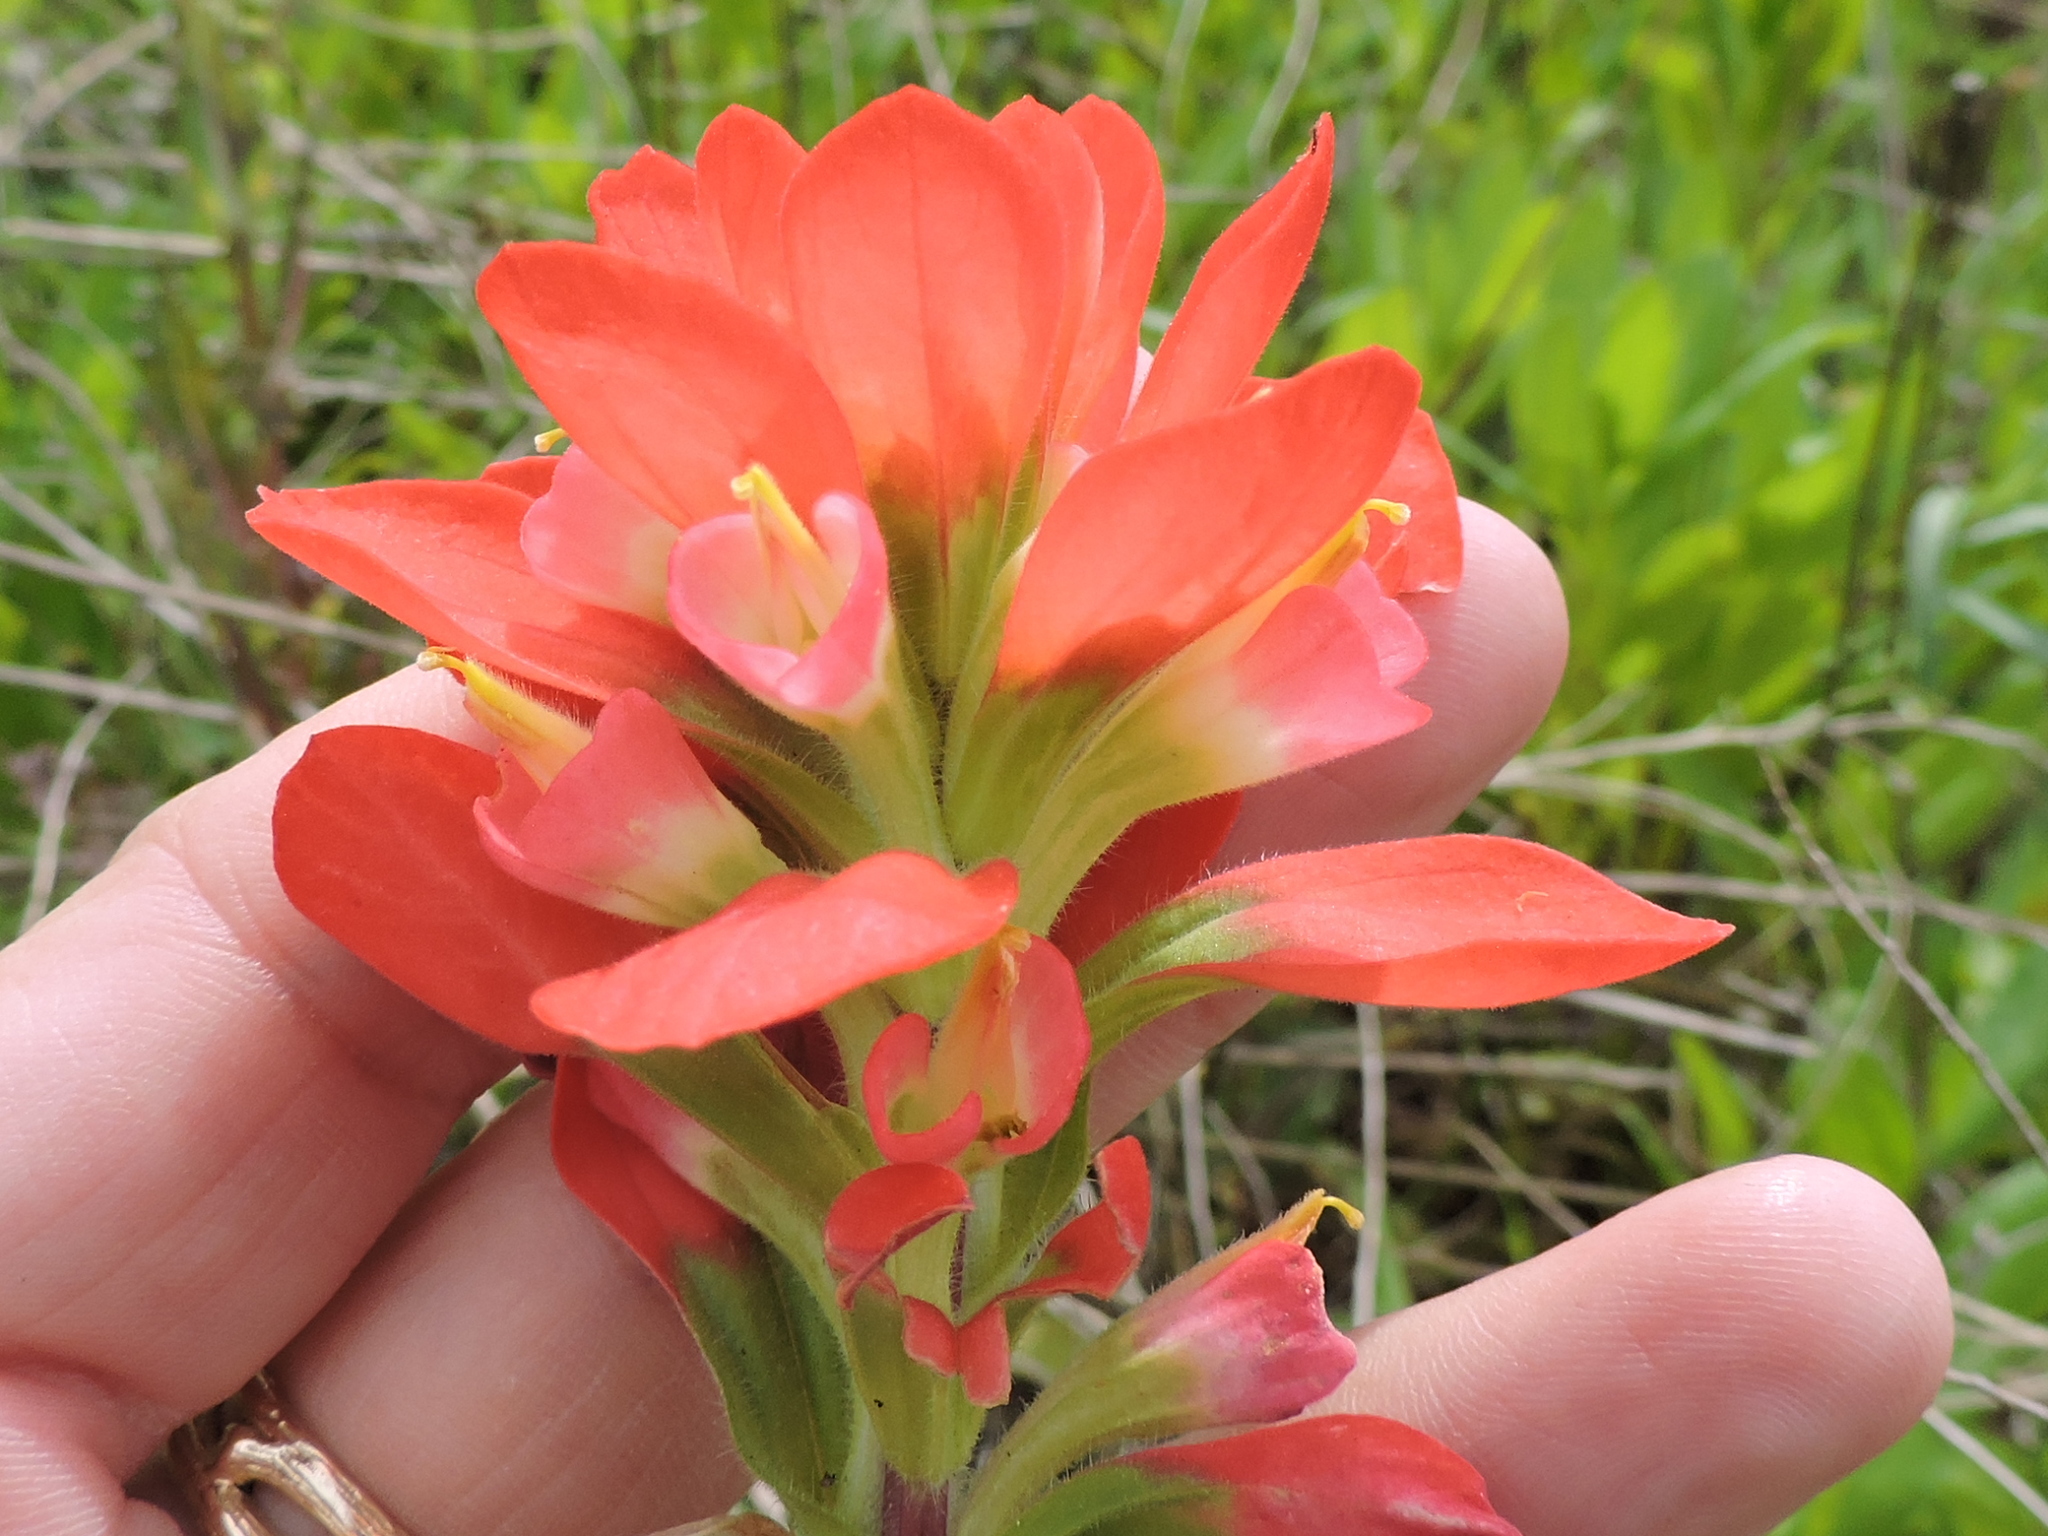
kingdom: Plantae
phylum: Tracheophyta
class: Magnoliopsida
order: Lamiales
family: Orobanchaceae
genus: Castilleja
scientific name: Castilleja indivisa
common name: Texas paintbrush
